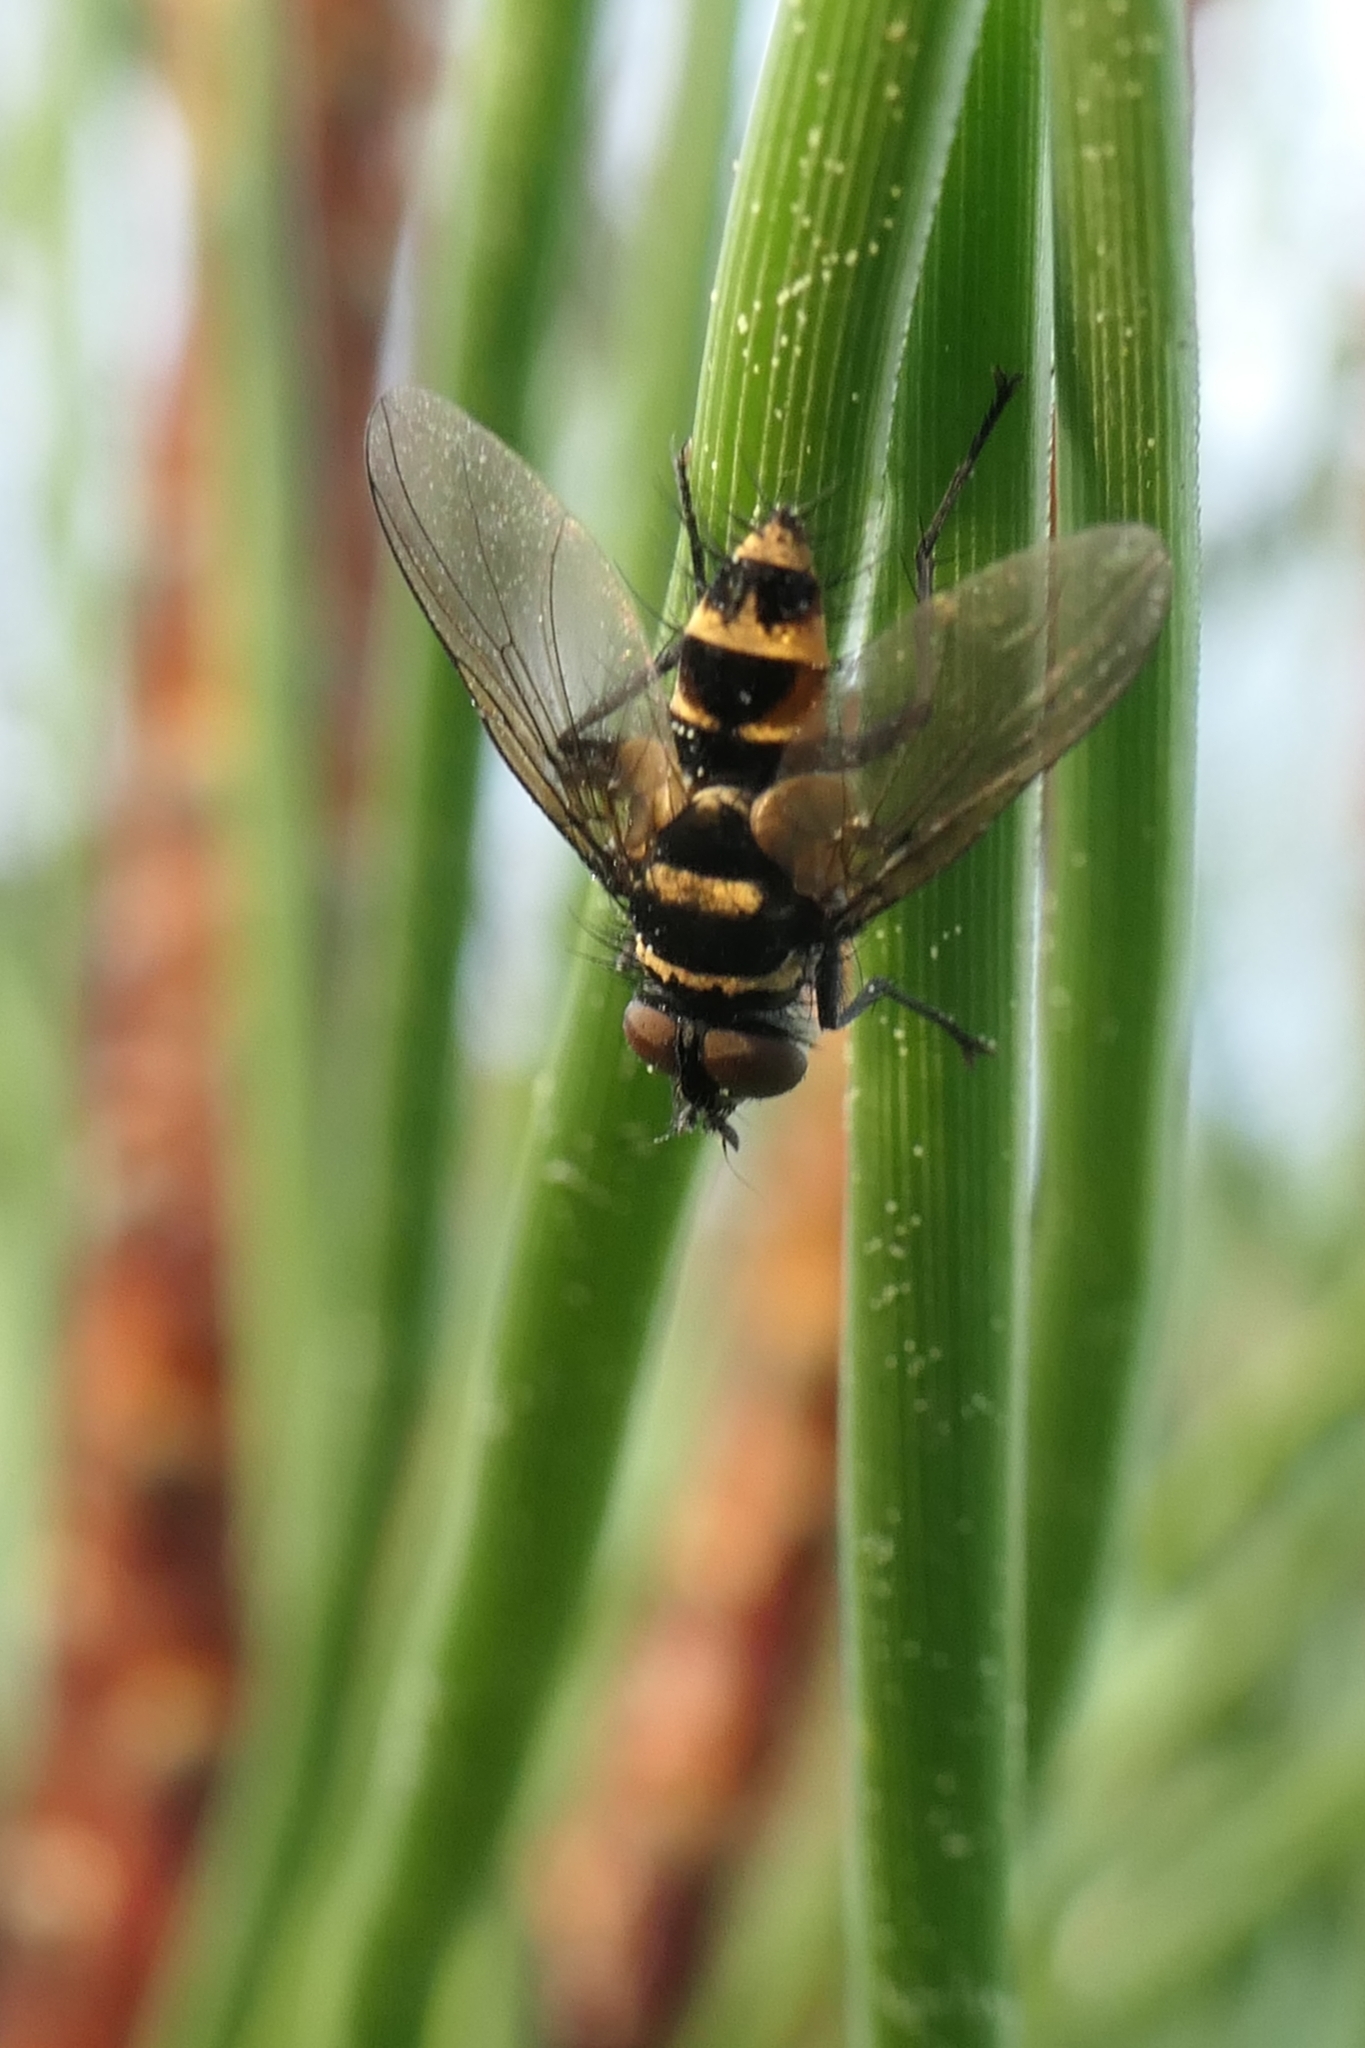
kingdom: Animalia
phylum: Arthropoda
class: Insecta
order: Diptera
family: Tachinidae
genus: Trigonospila
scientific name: Trigonospila brevifacies
